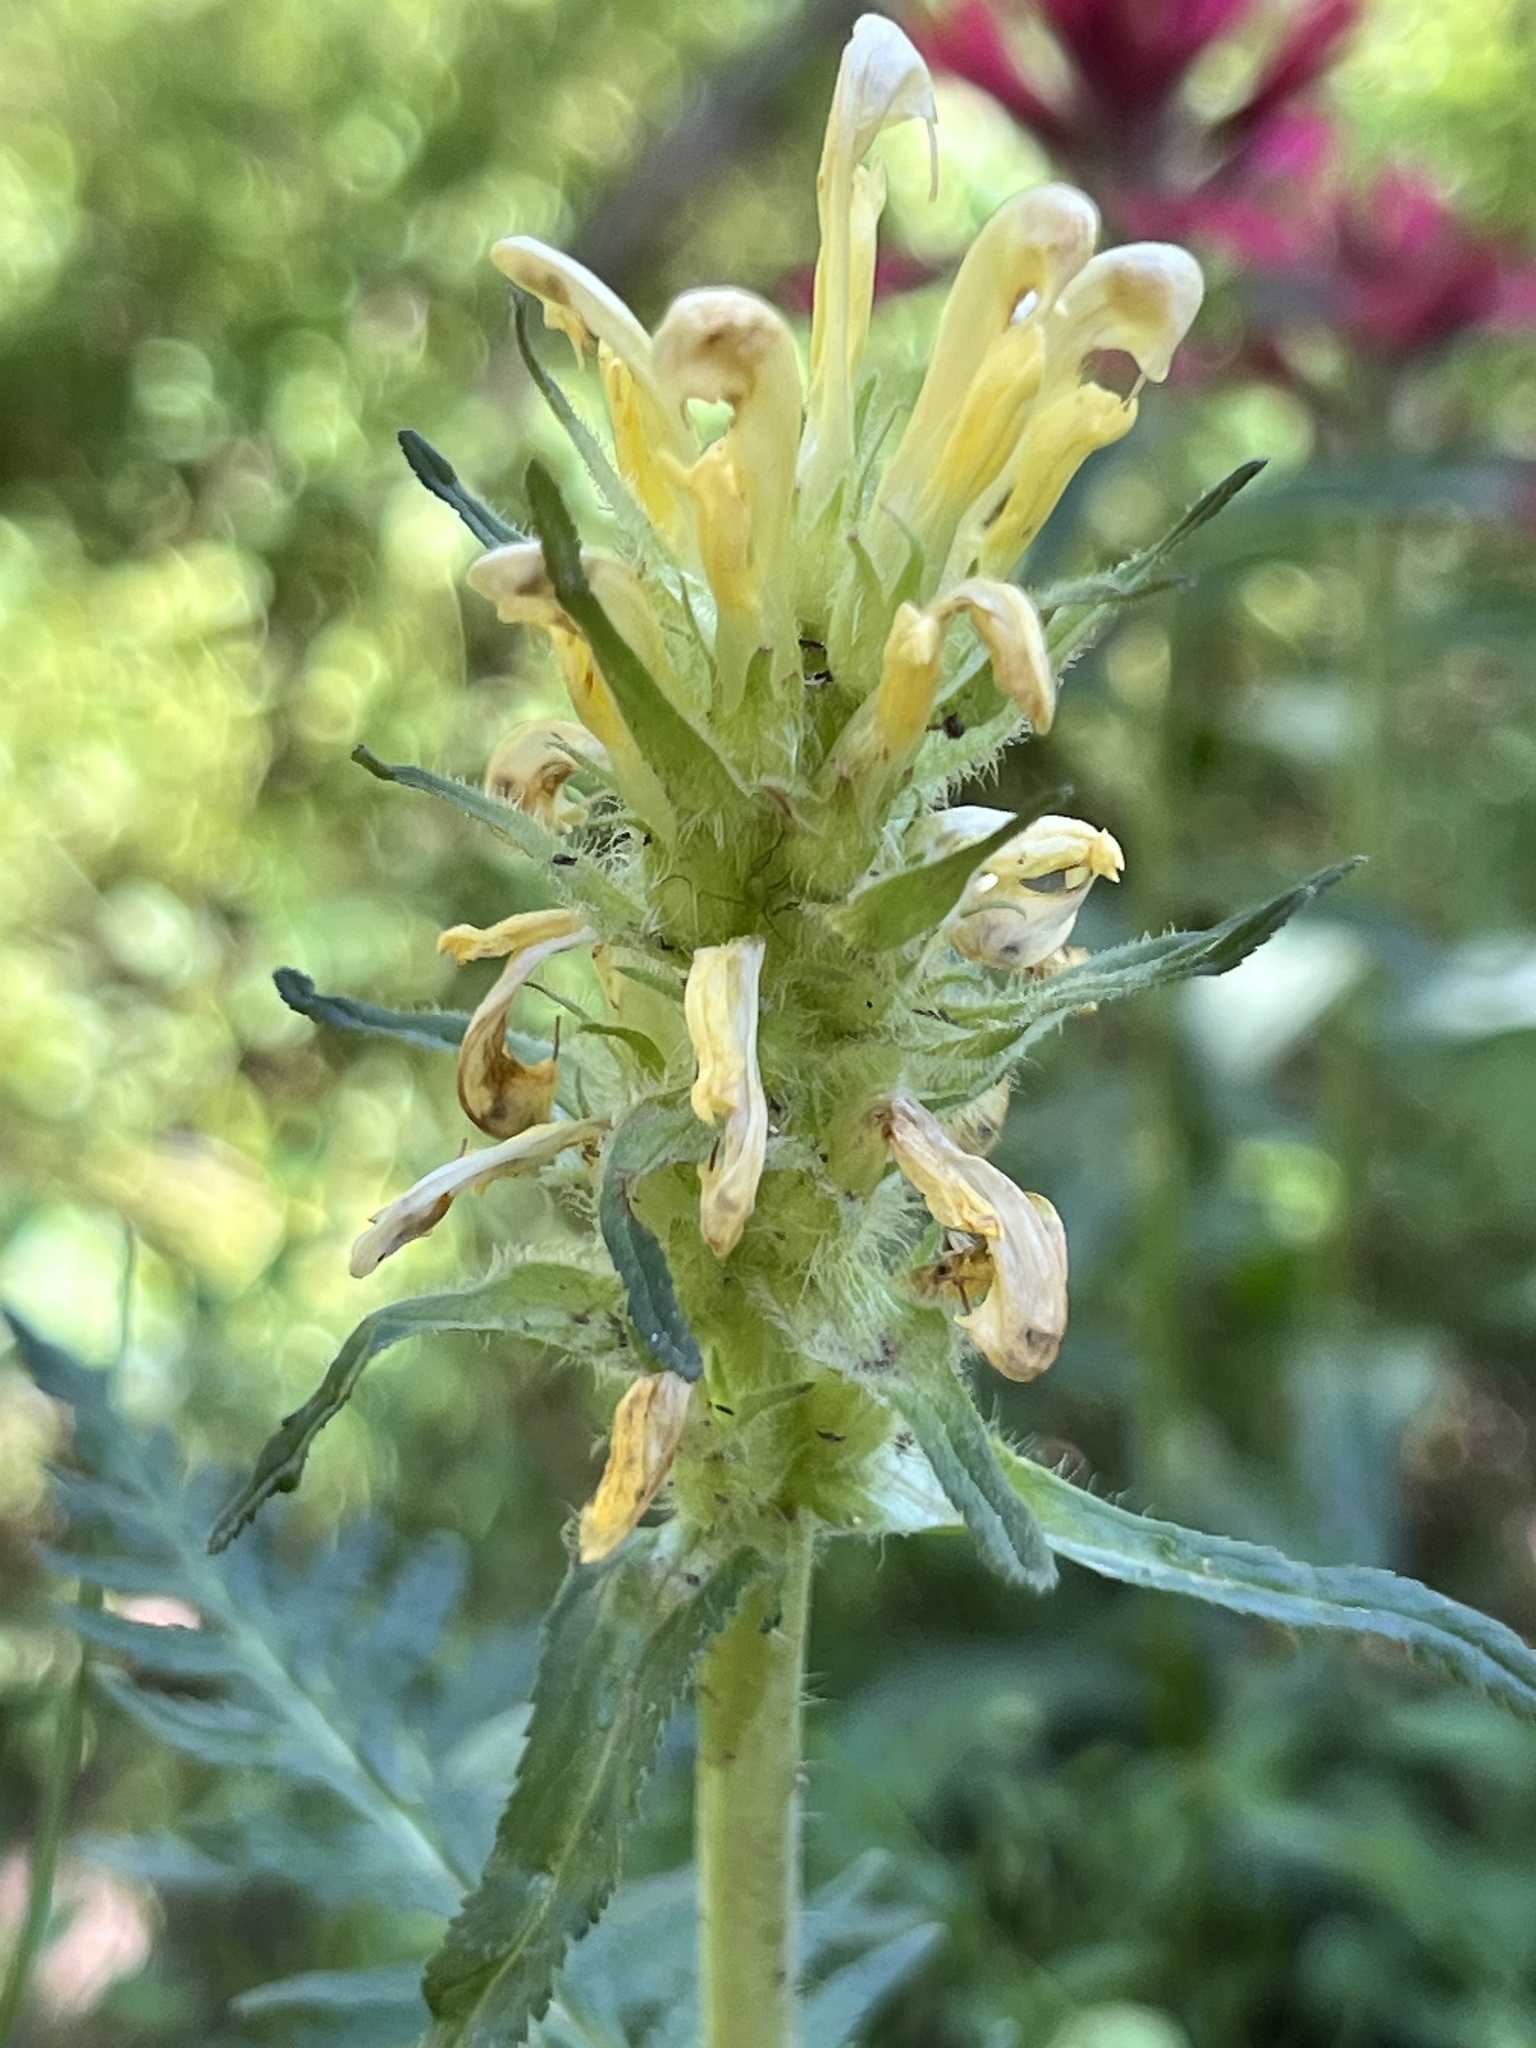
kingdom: Plantae
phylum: Tracheophyta
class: Magnoliopsida
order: Lamiales
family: Orobanchaceae
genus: Pedicularis
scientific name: Pedicularis bracteosa
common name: Bracted lousewort
